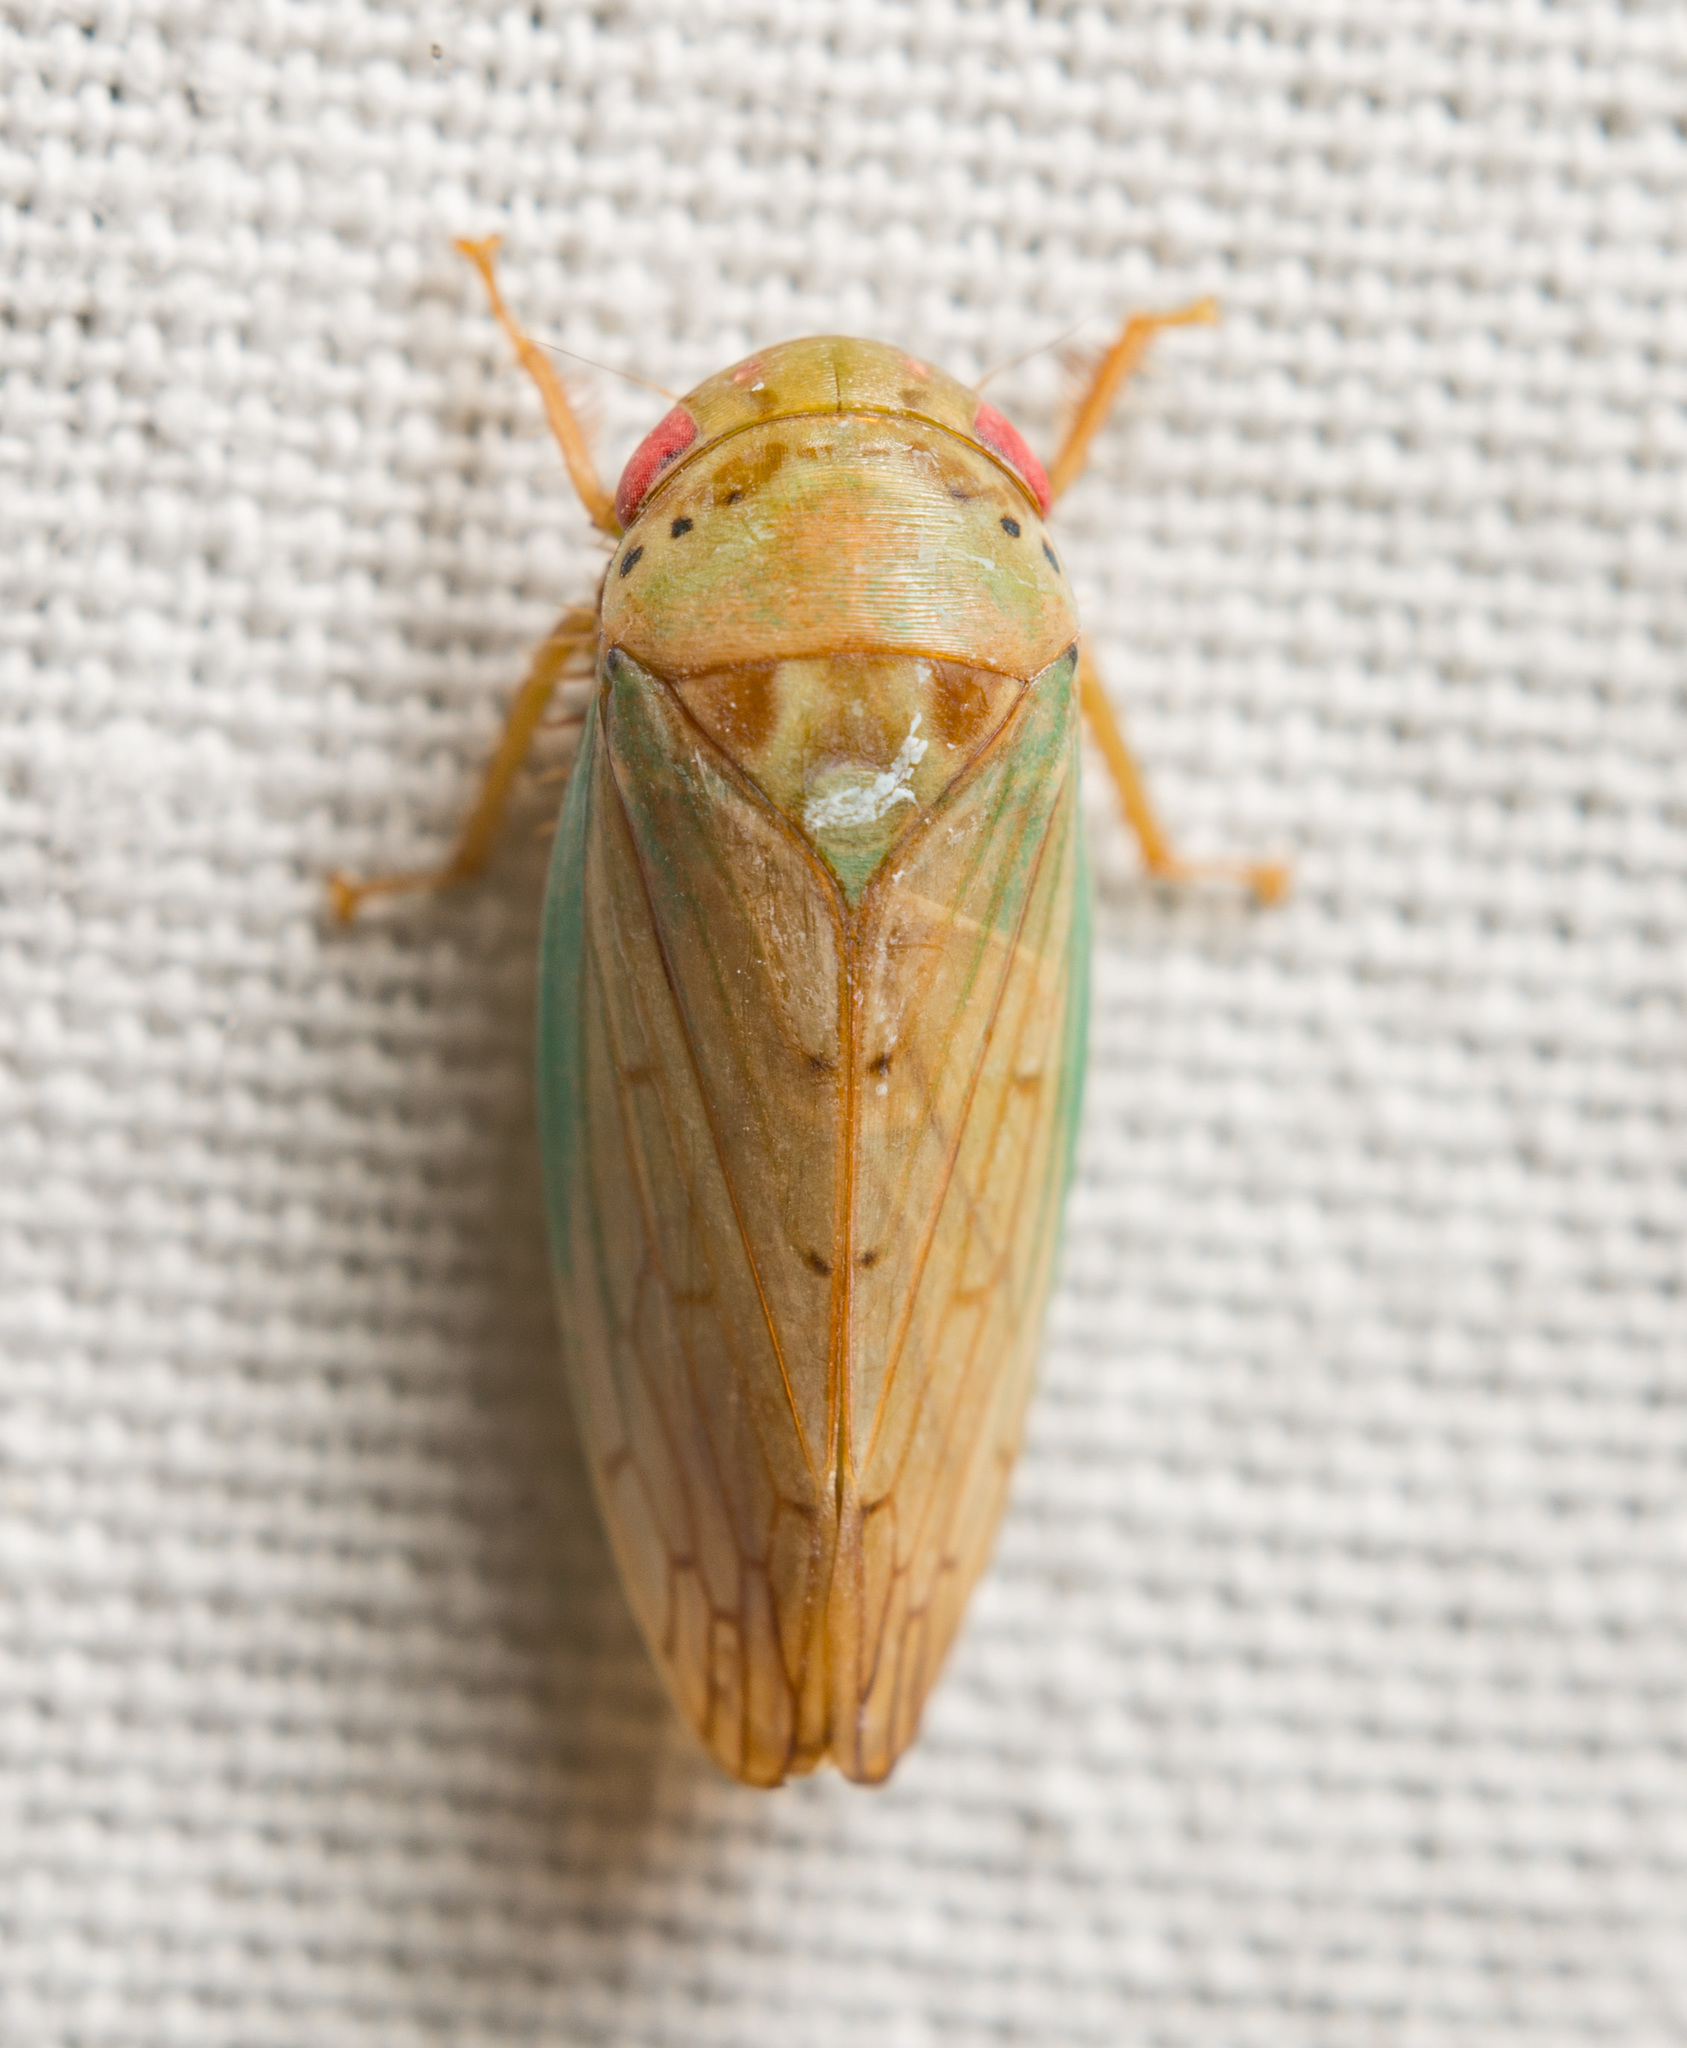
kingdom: Animalia
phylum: Arthropoda
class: Insecta
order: Hemiptera
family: Cicadellidae
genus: Polana
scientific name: Polana quadrinotata
